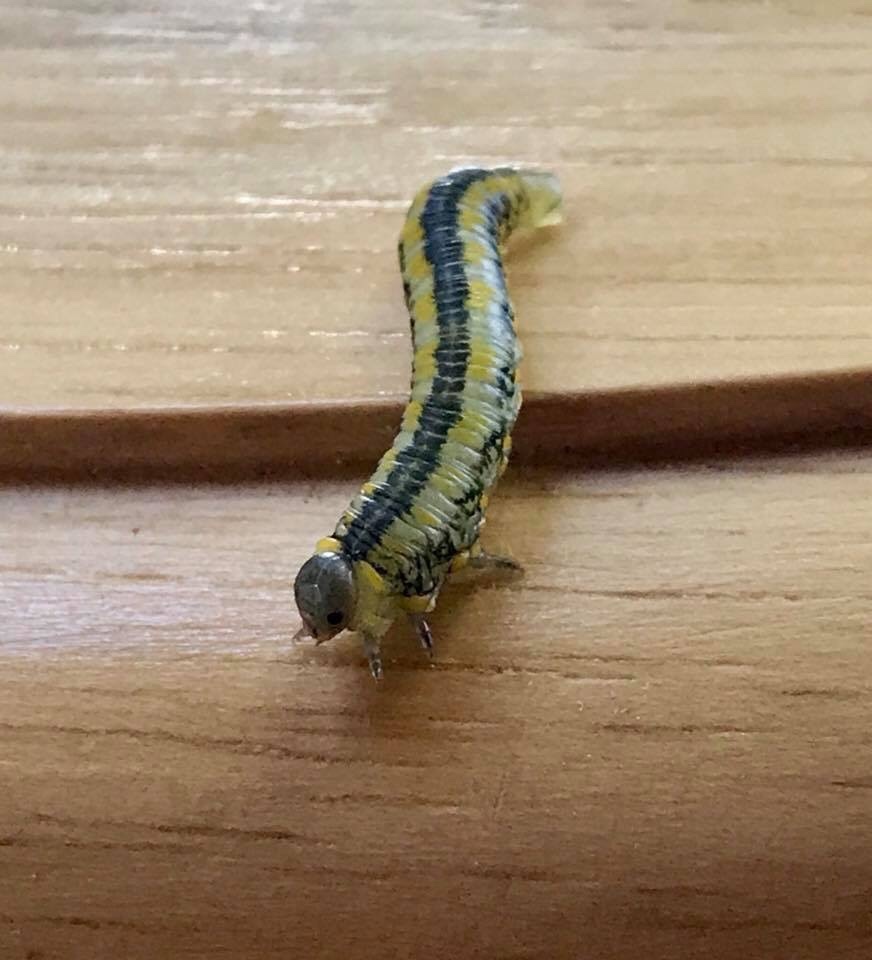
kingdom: Animalia
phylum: Arthropoda
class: Insecta
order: Hymenoptera
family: Diprionidae
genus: Diprion
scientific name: Diprion similis
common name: Pine sawfly
